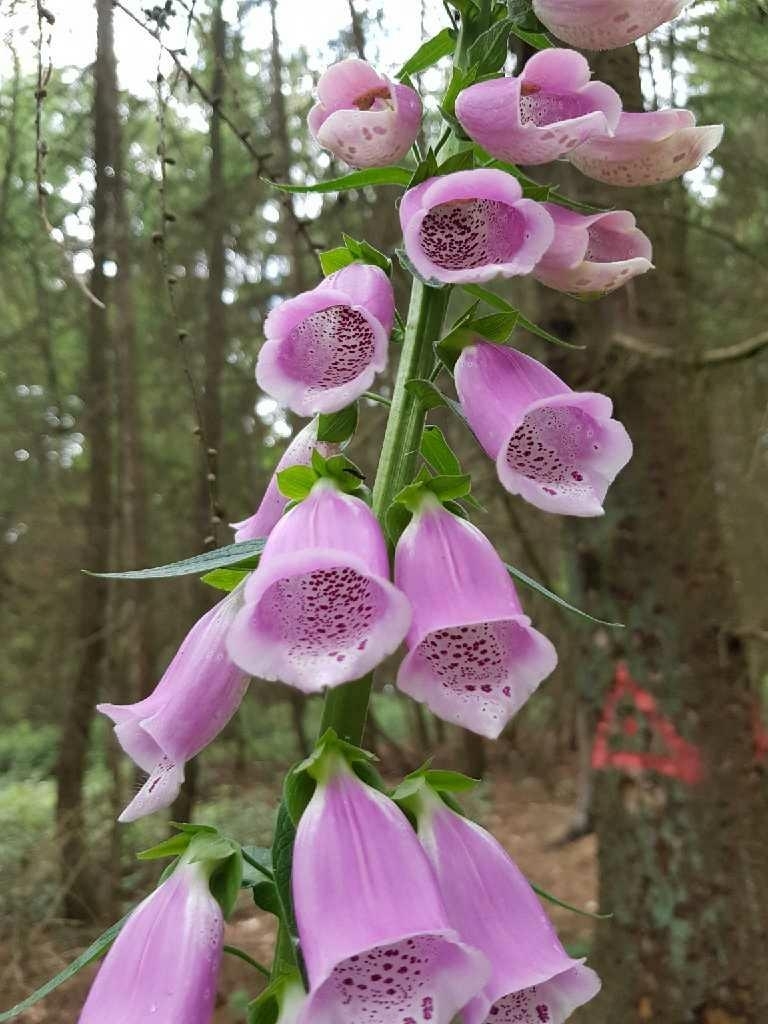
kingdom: Plantae
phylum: Tracheophyta
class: Magnoliopsida
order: Lamiales
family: Plantaginaceae
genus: Digitalis
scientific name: Digitalis purpurea
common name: Foxglove
